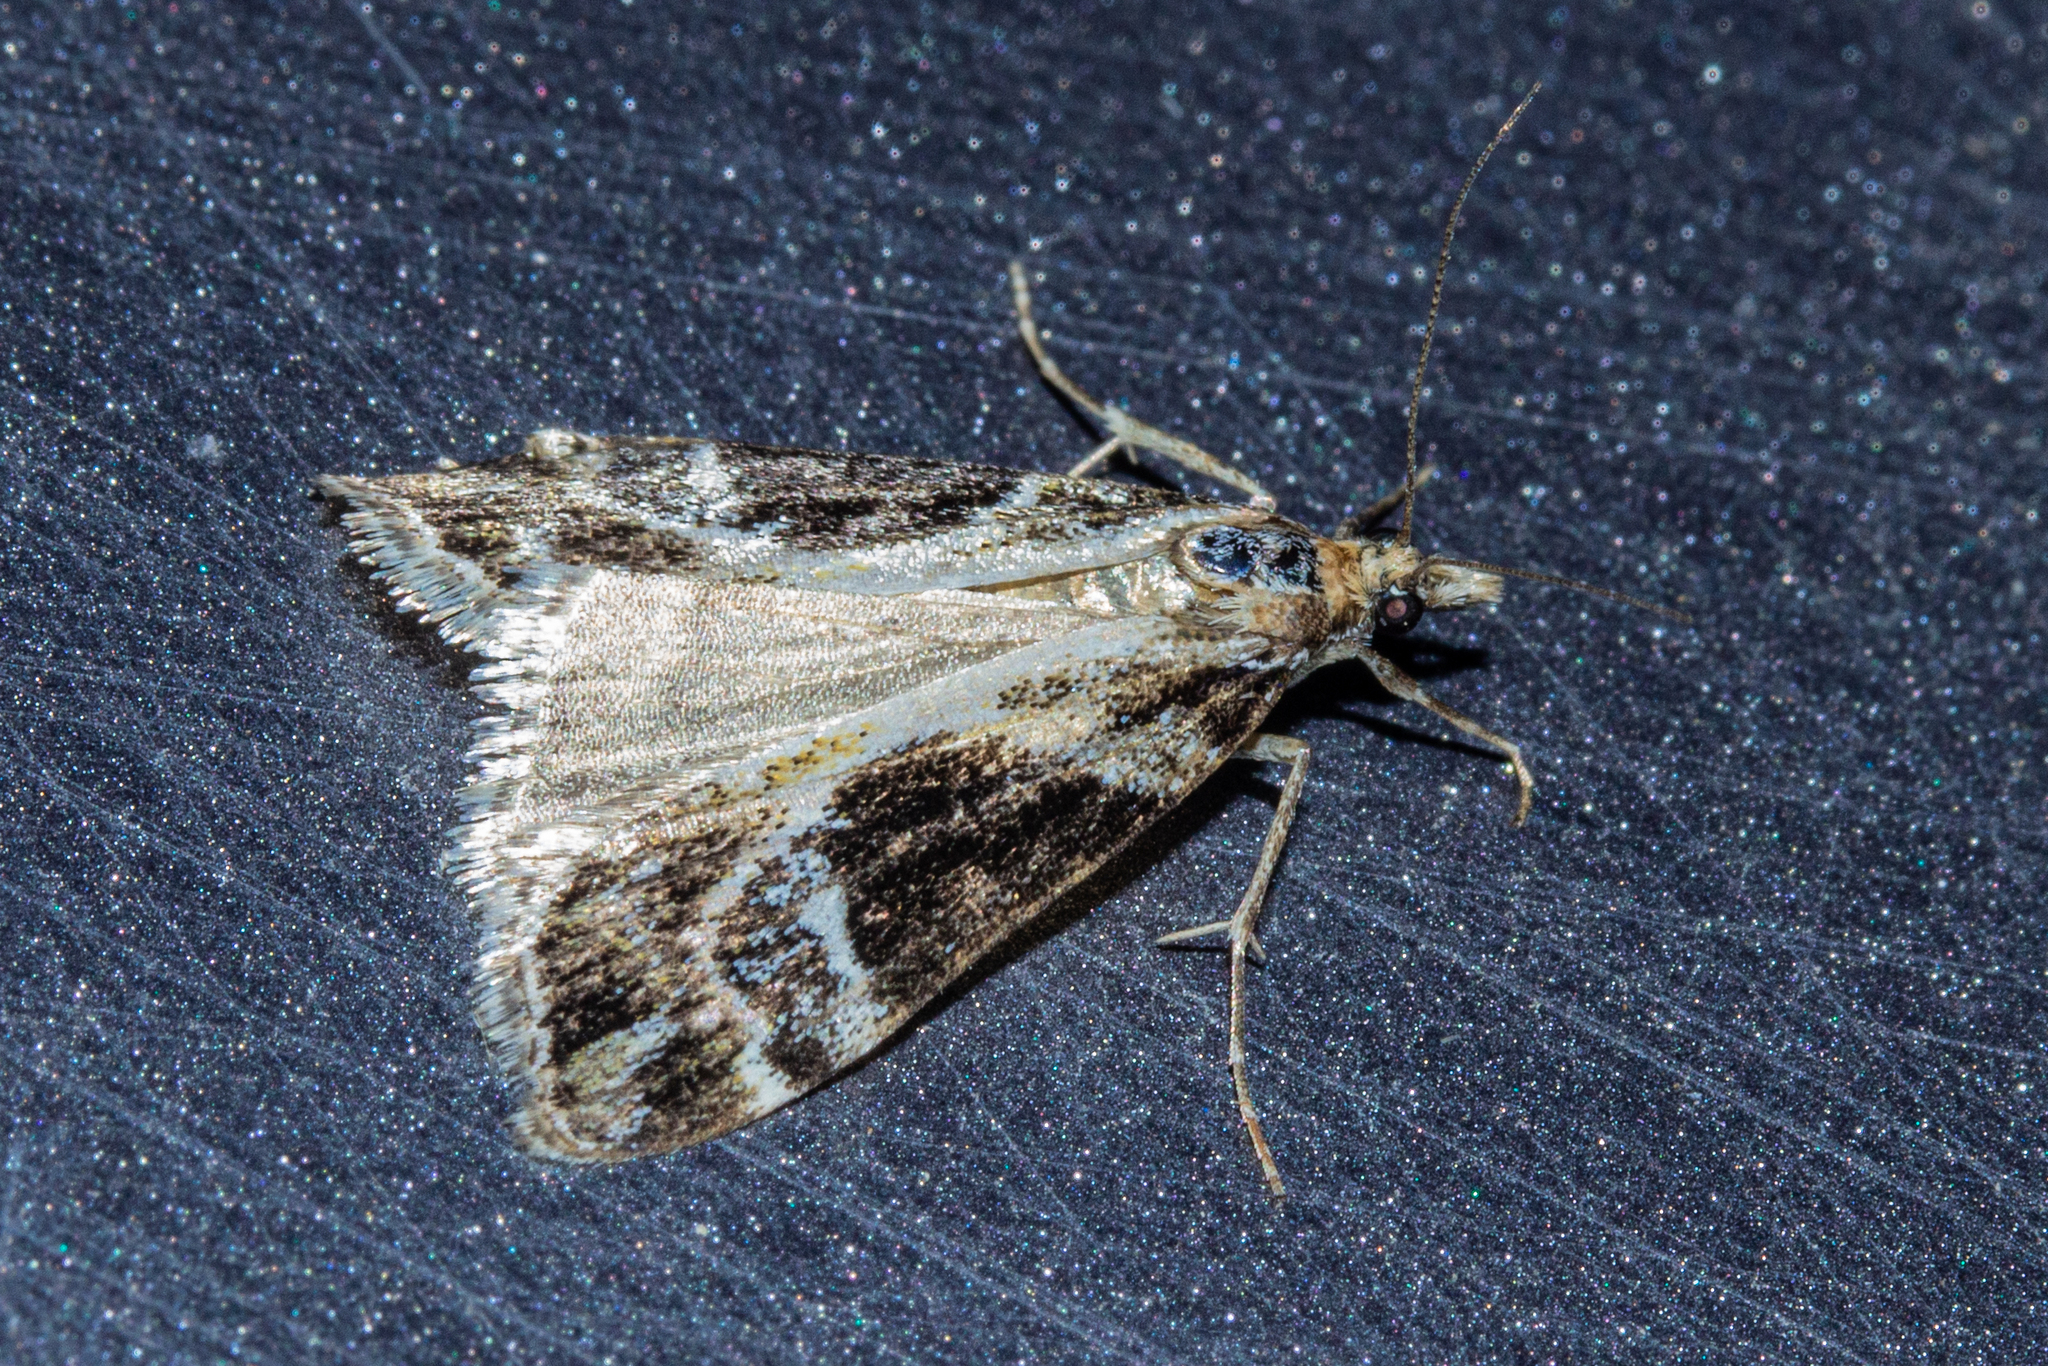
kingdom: Animalia
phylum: Arthropoda
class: Insecta
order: Lepidoptera
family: Crambidae
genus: Eudonia
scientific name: Eudonia melanaegis
